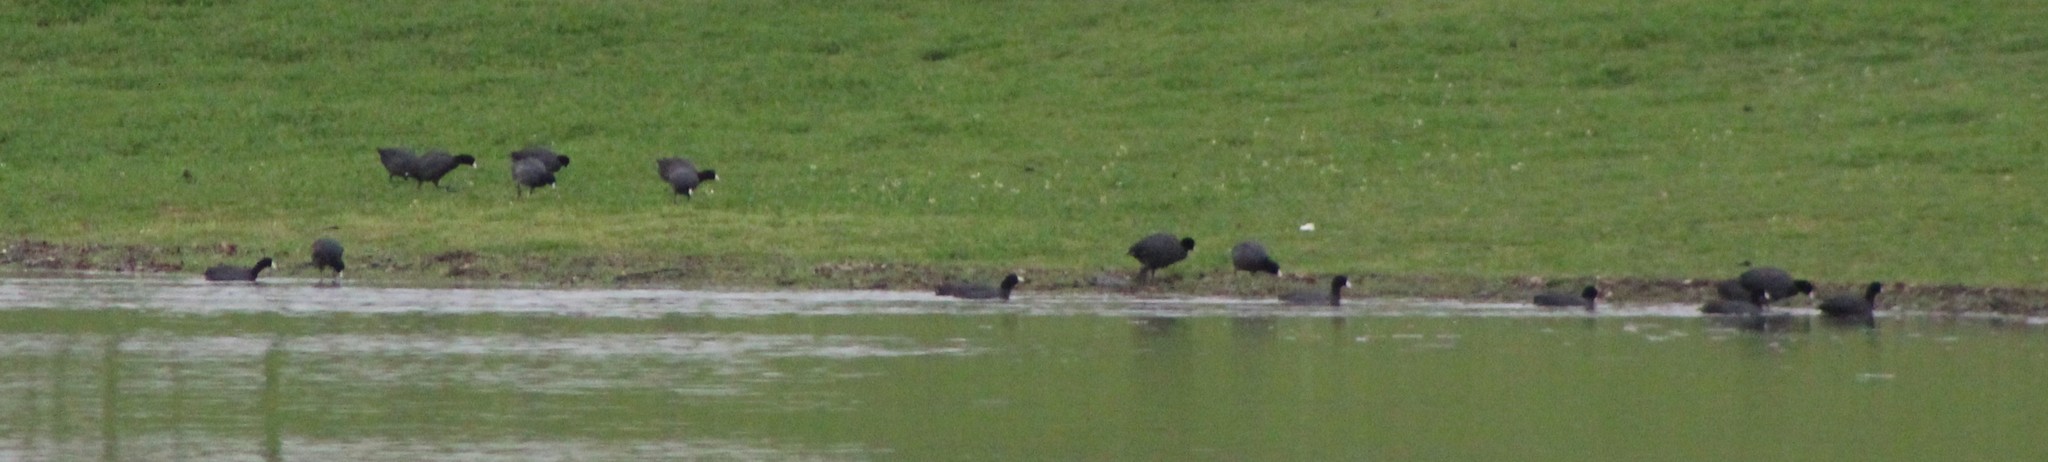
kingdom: Animalia
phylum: Chordata
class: Aves
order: Gruiformes
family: Rallidae
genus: Fulica
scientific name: Fulica americana
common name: American coot
